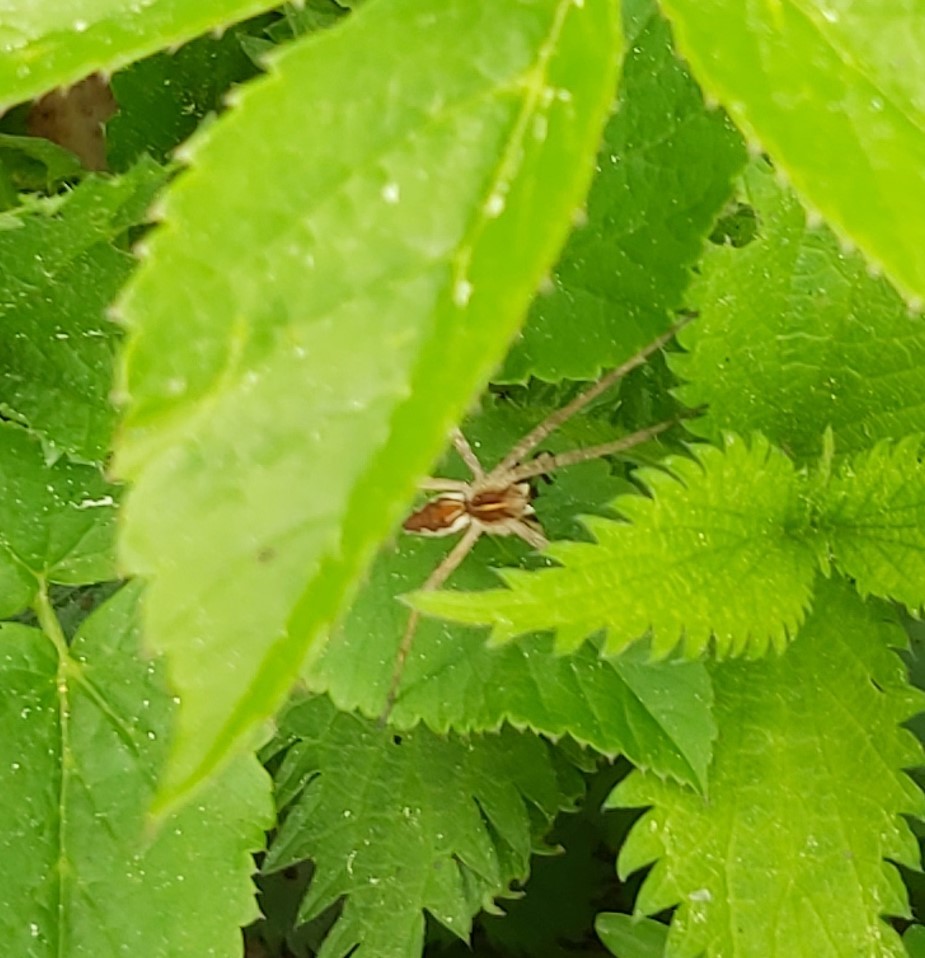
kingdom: Animalia
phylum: Arthropoda
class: Arachnida
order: Araneae
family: Pisauridae
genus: Pisaura
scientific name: Pisaura mirabilis
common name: Tent spider
